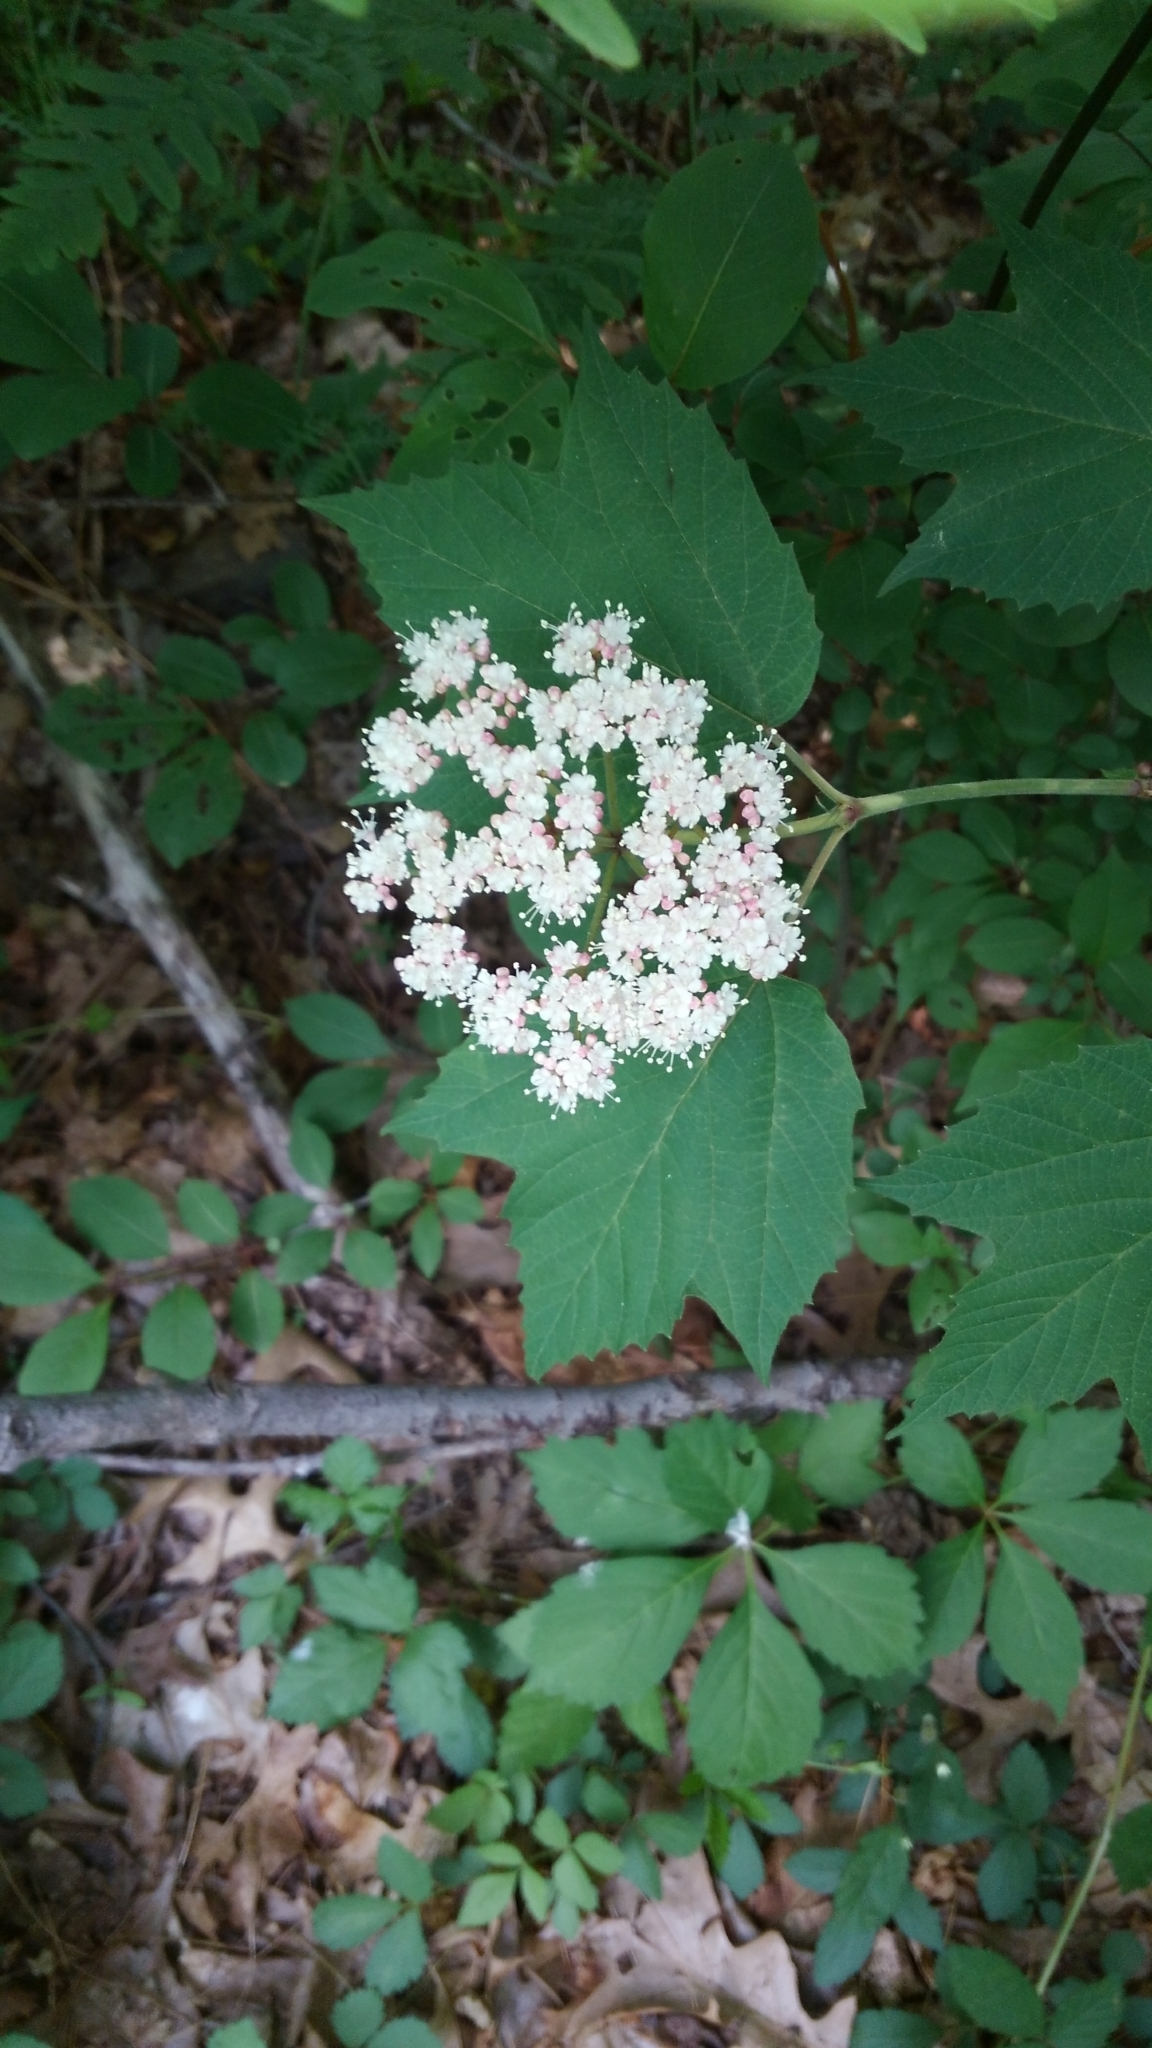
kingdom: Plantae
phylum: Tracheophyta
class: Magnoliopsida
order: Dipsacales
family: Viburnaceae
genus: Viburnum
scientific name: Viburnum acerifolium
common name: Dockmackie
